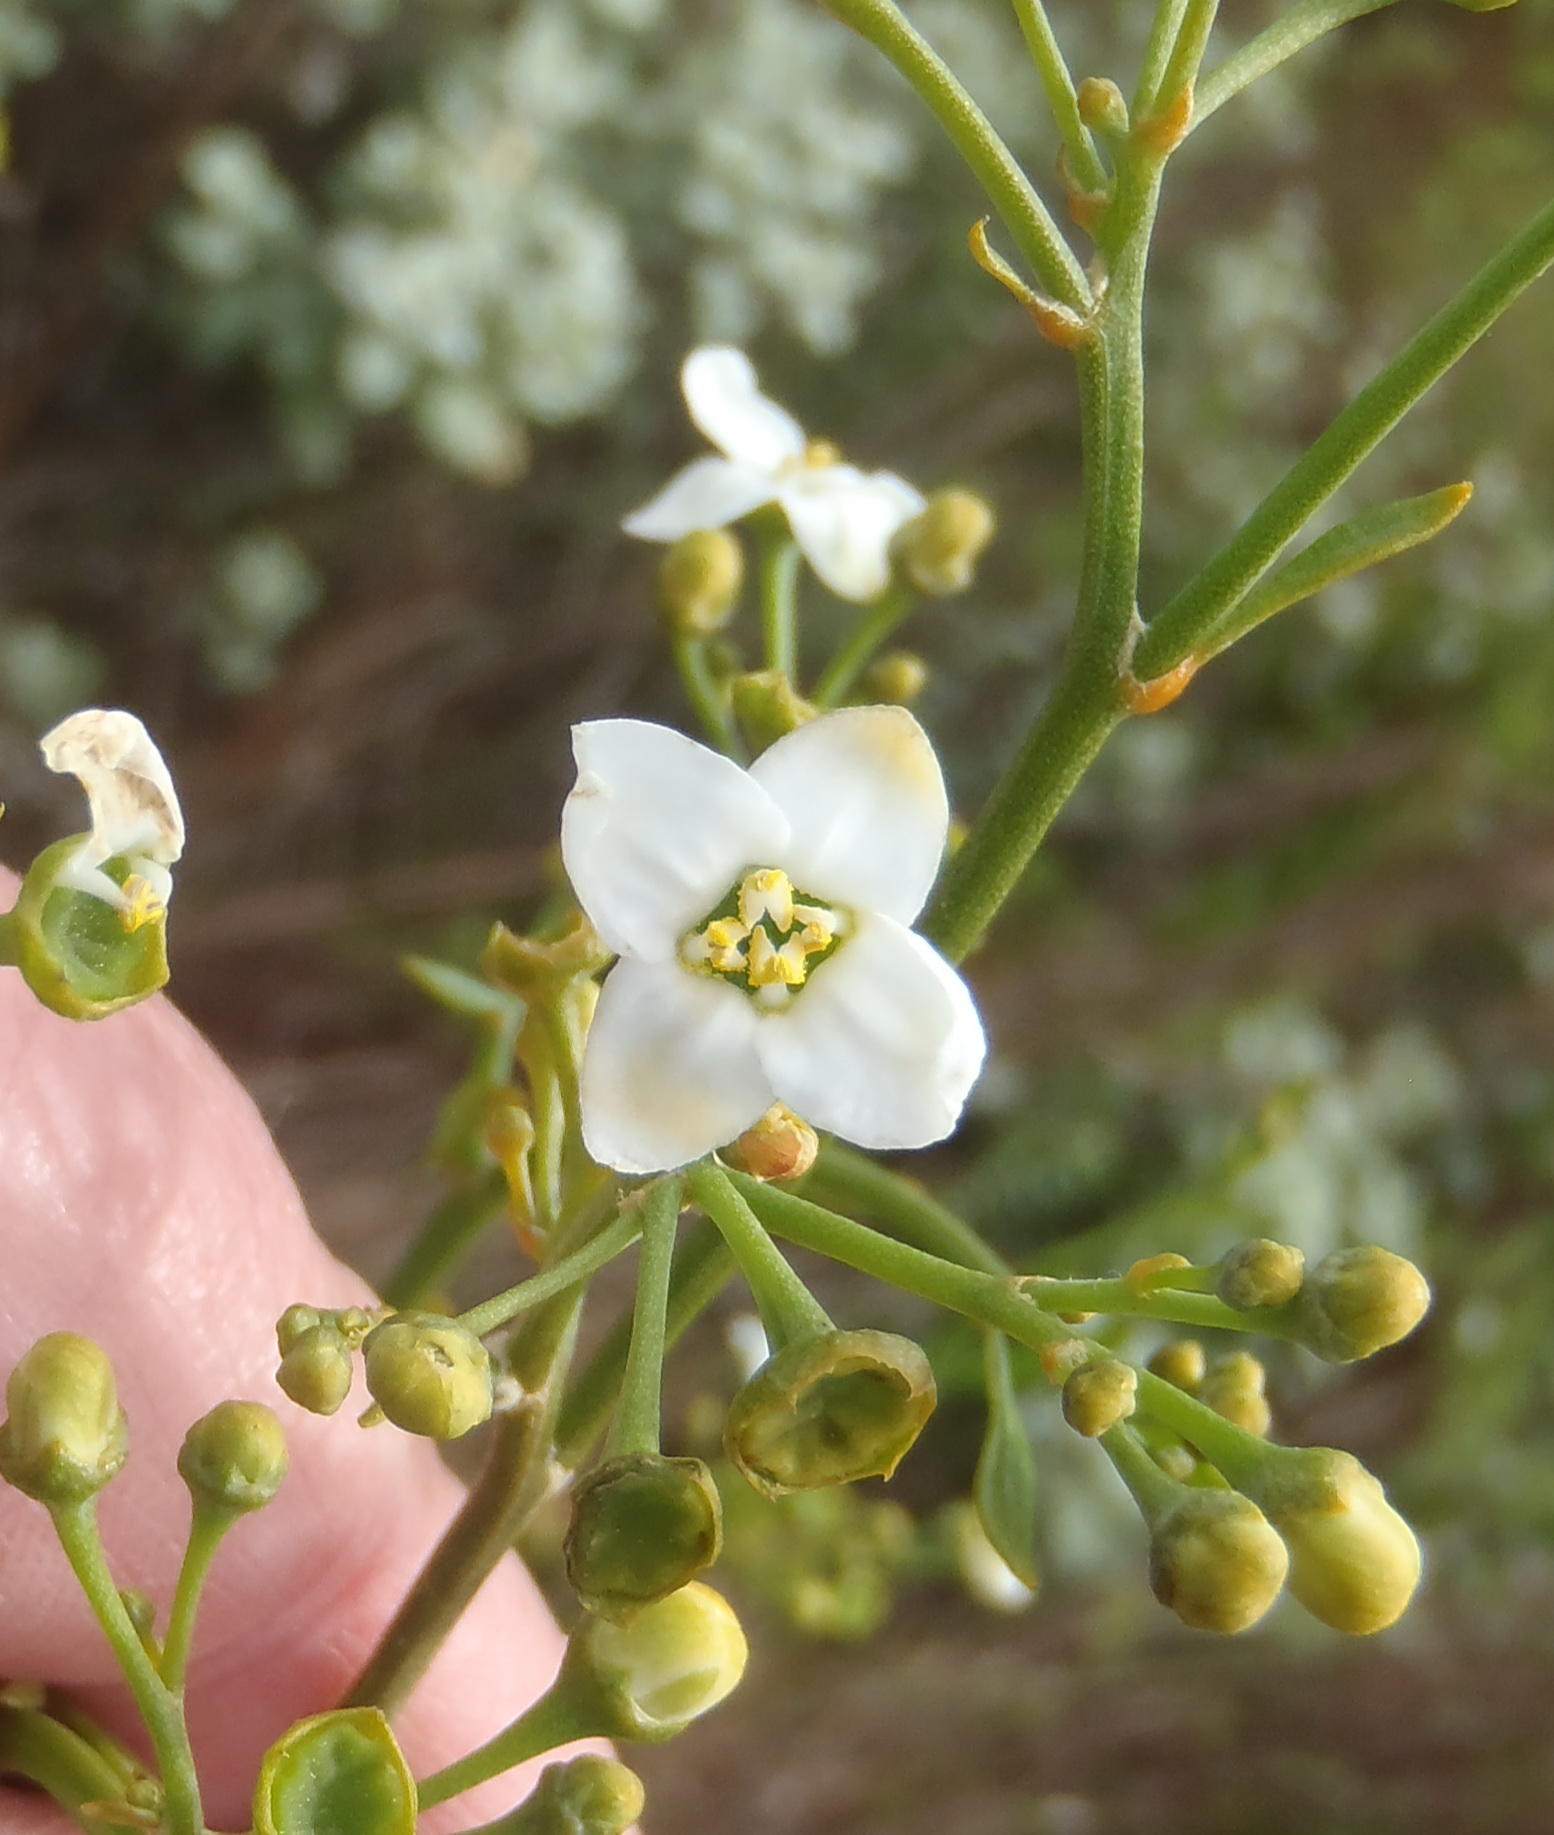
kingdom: Plantae
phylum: Tracheophyta
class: Magnoliopsida
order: Solanales
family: Montiniaceae
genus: Montinia
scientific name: Montinia caryophyllacea
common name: Wild clove-bush
